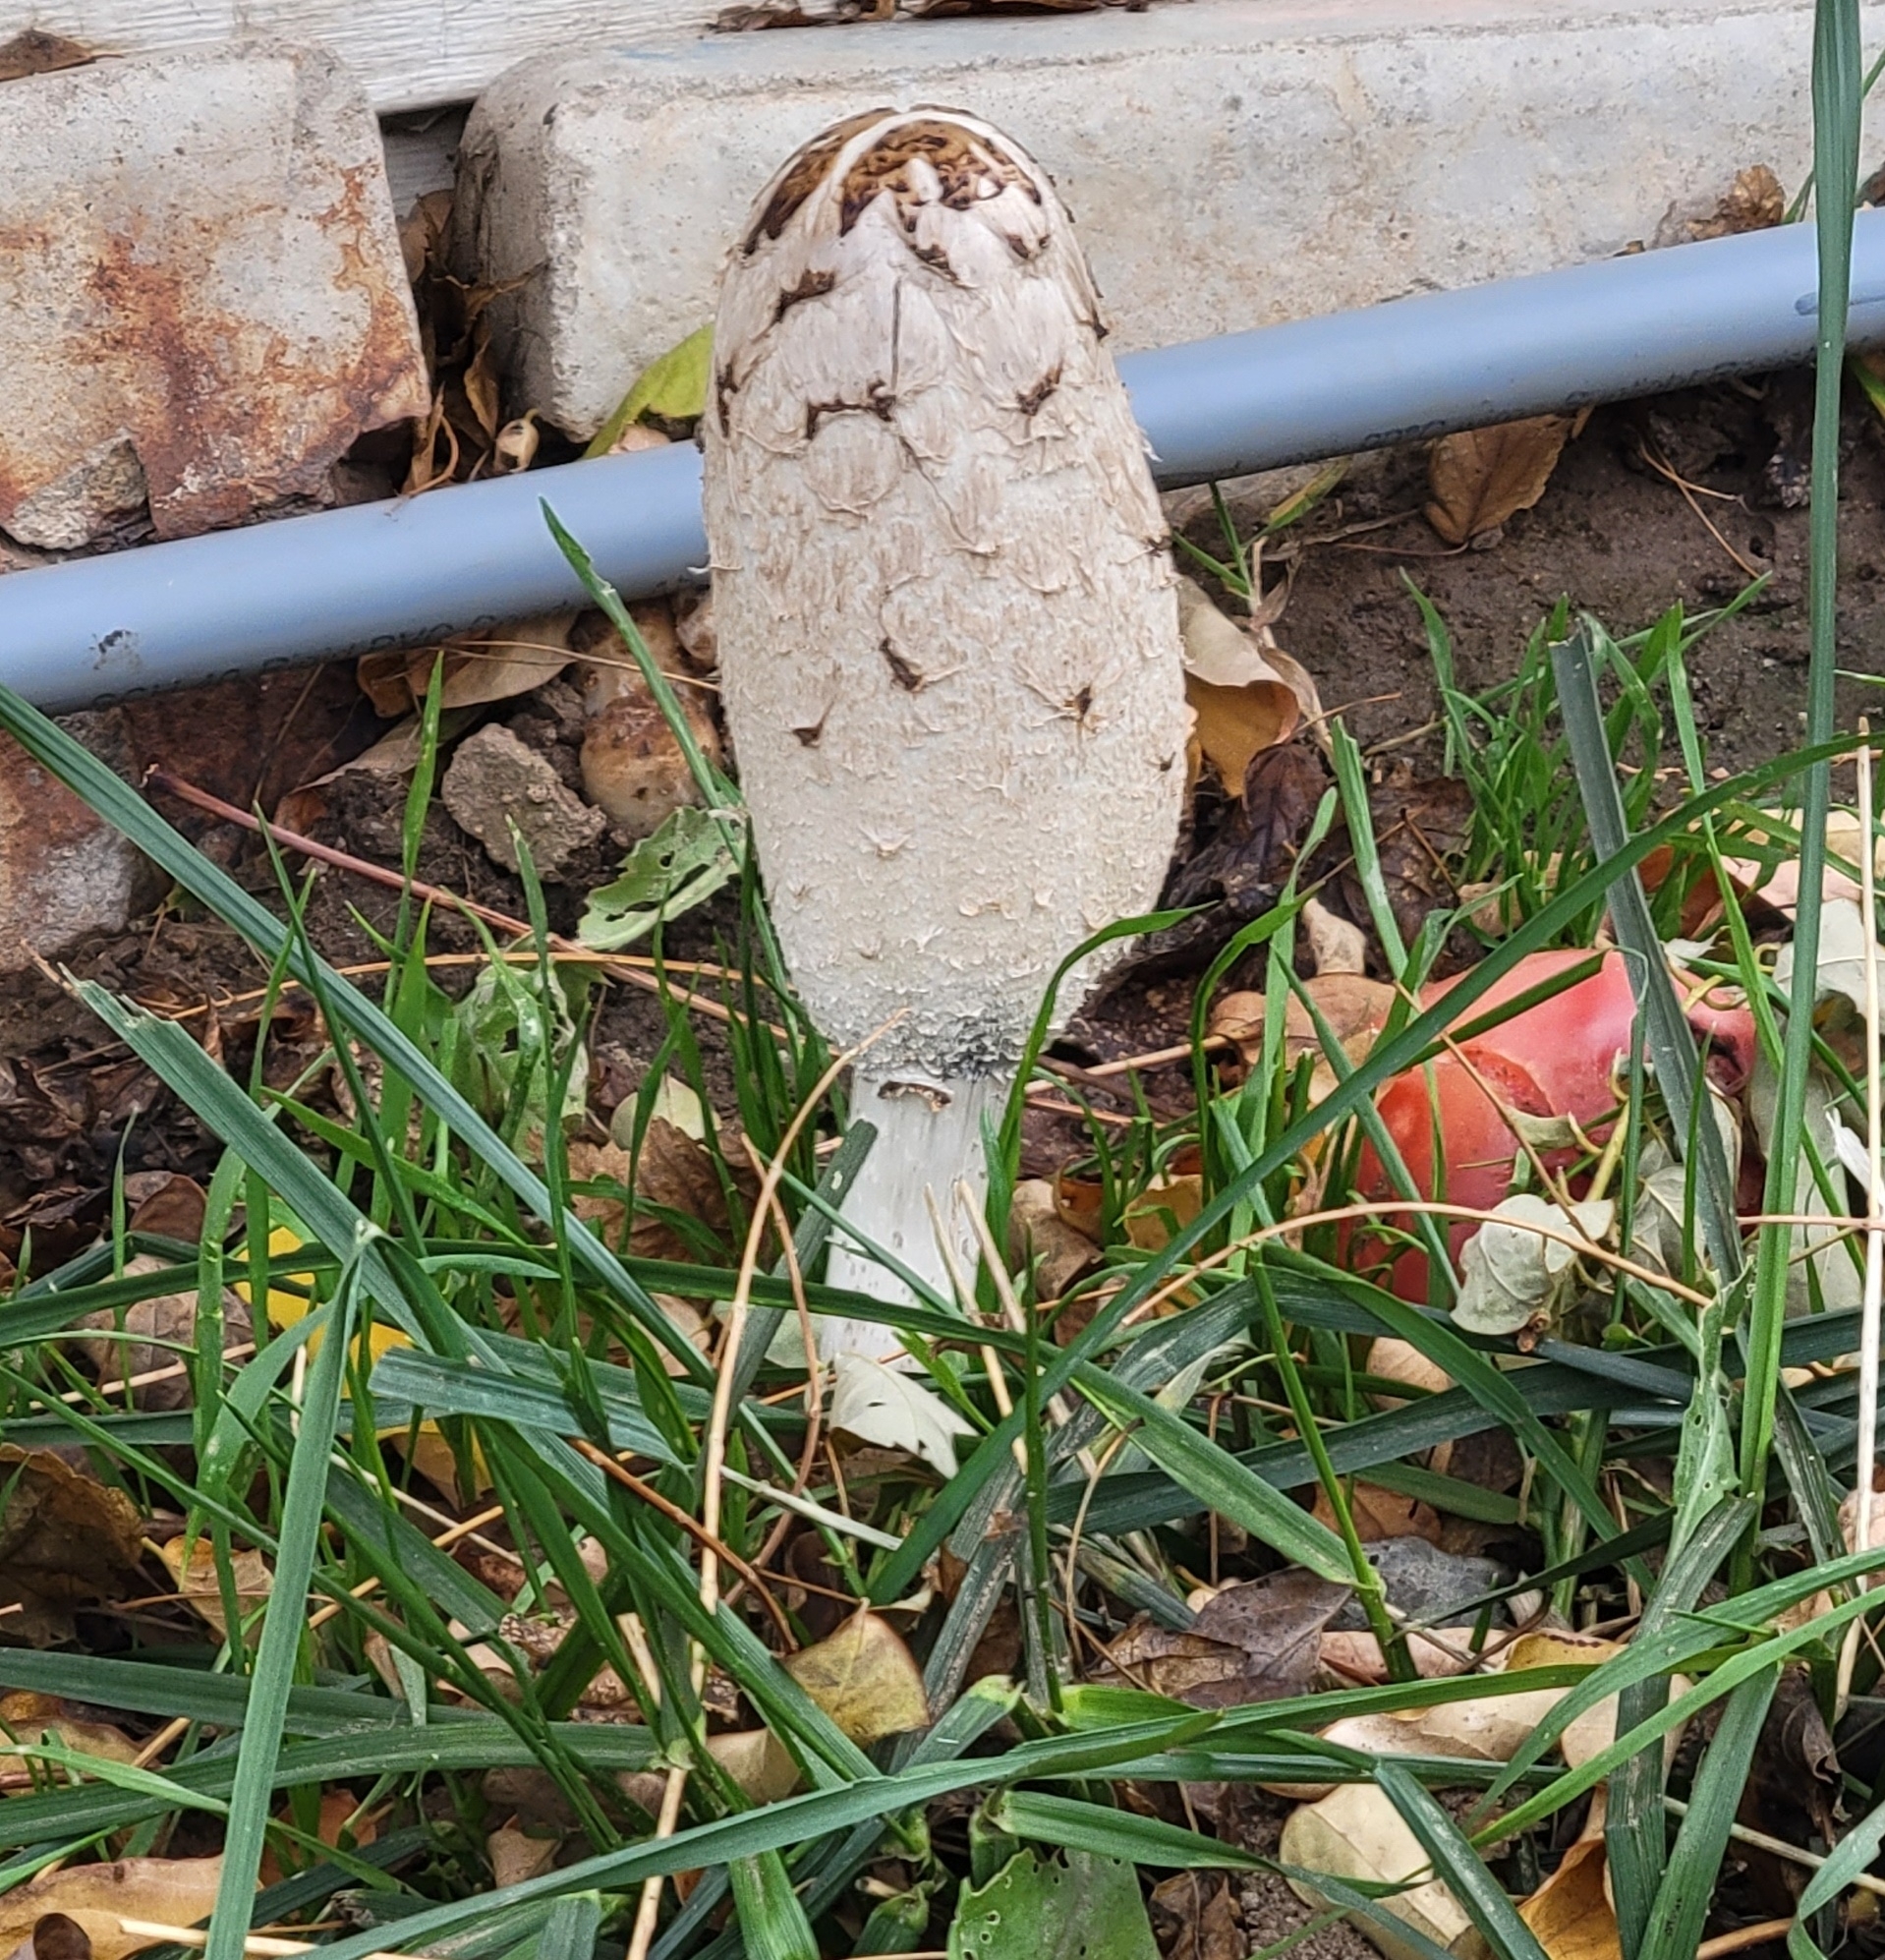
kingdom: Fungi
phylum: Basidiomycota
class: Agaricomycetes
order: Agaricales
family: Agaricaceae
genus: Coprinus
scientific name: Coprinus comatus
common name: Lawyer's wig
